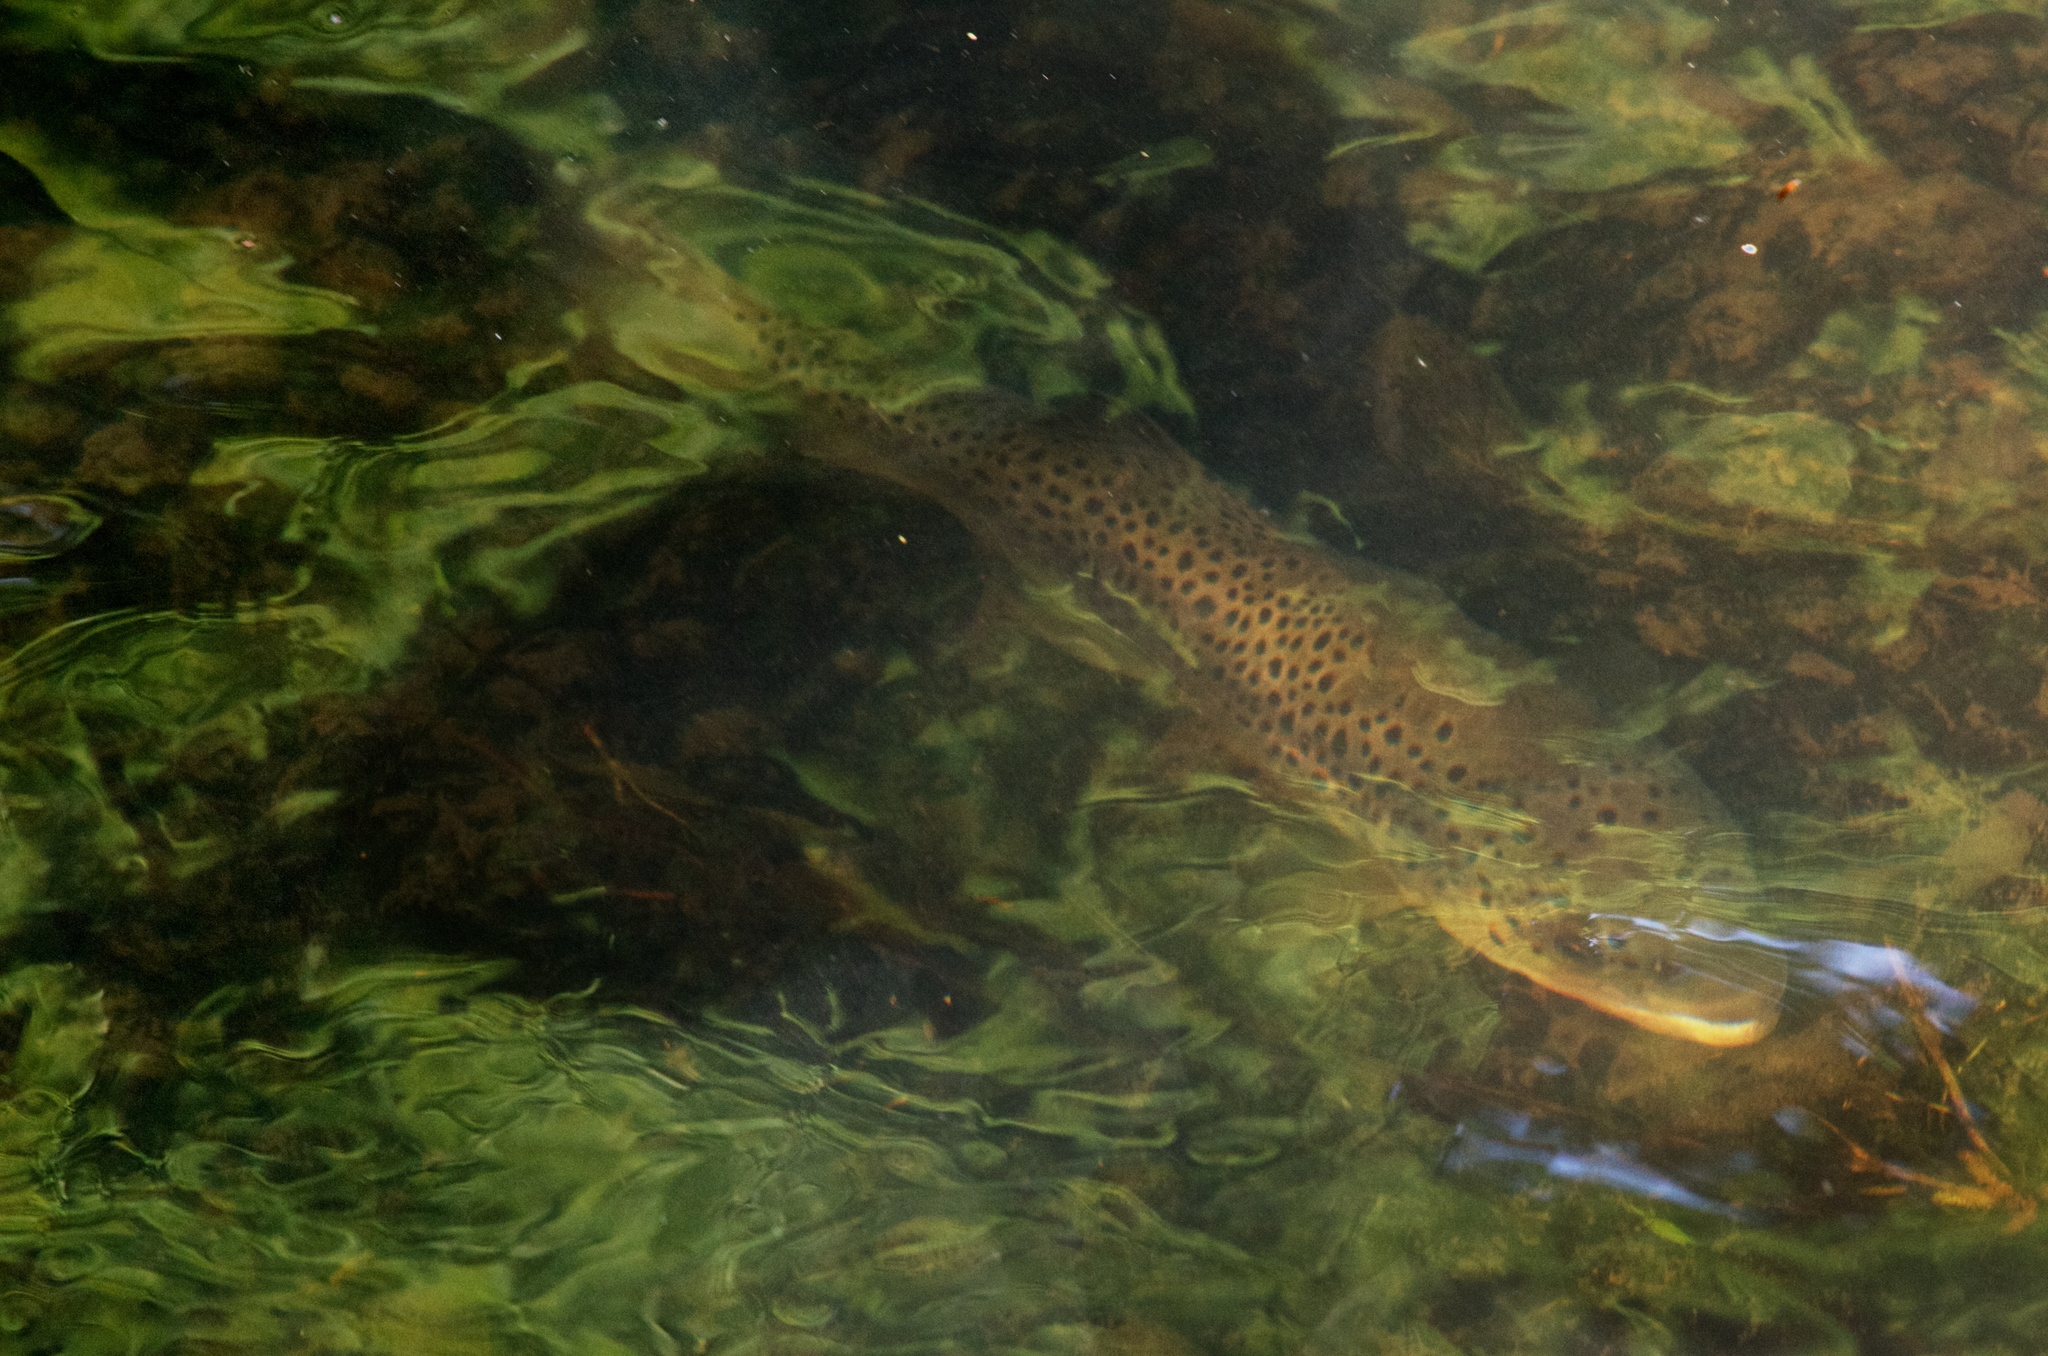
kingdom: Animalia
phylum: Chordata
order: Salmoniformes
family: Salmonidae
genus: Salmo
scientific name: Salmo trutta
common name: Brown trout
